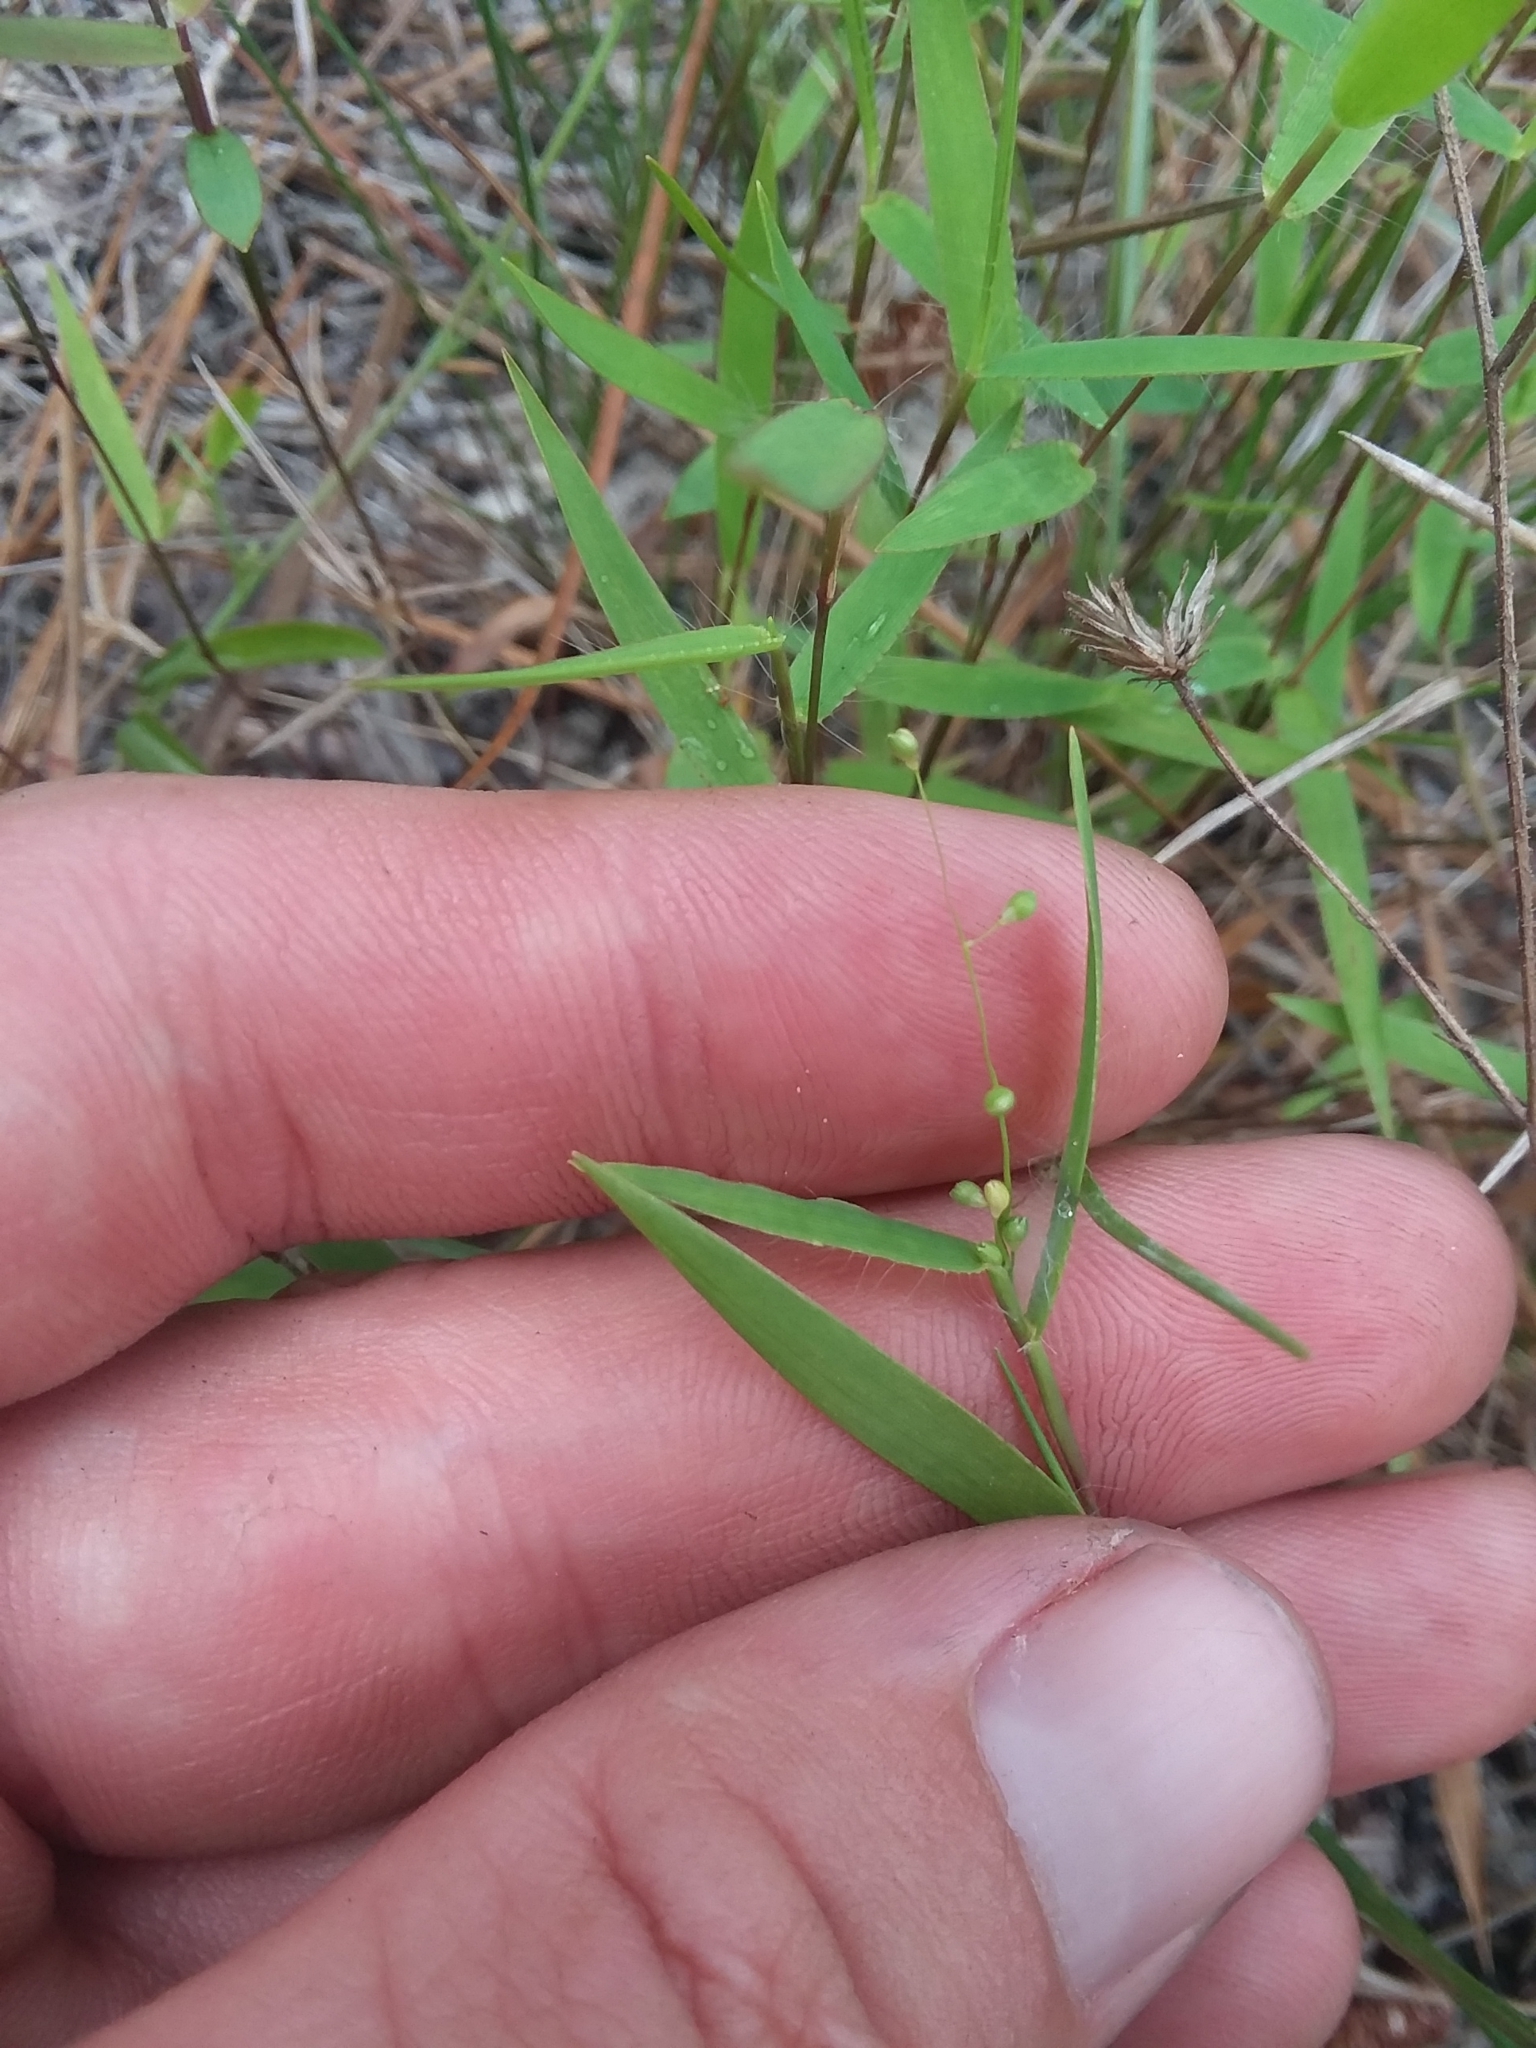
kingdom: Plantae
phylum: Tracheophyta
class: Liliopsida
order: Poales
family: Poaceae
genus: Dichanthelium
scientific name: Dichanthelium portoricense
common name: American panicgrass
